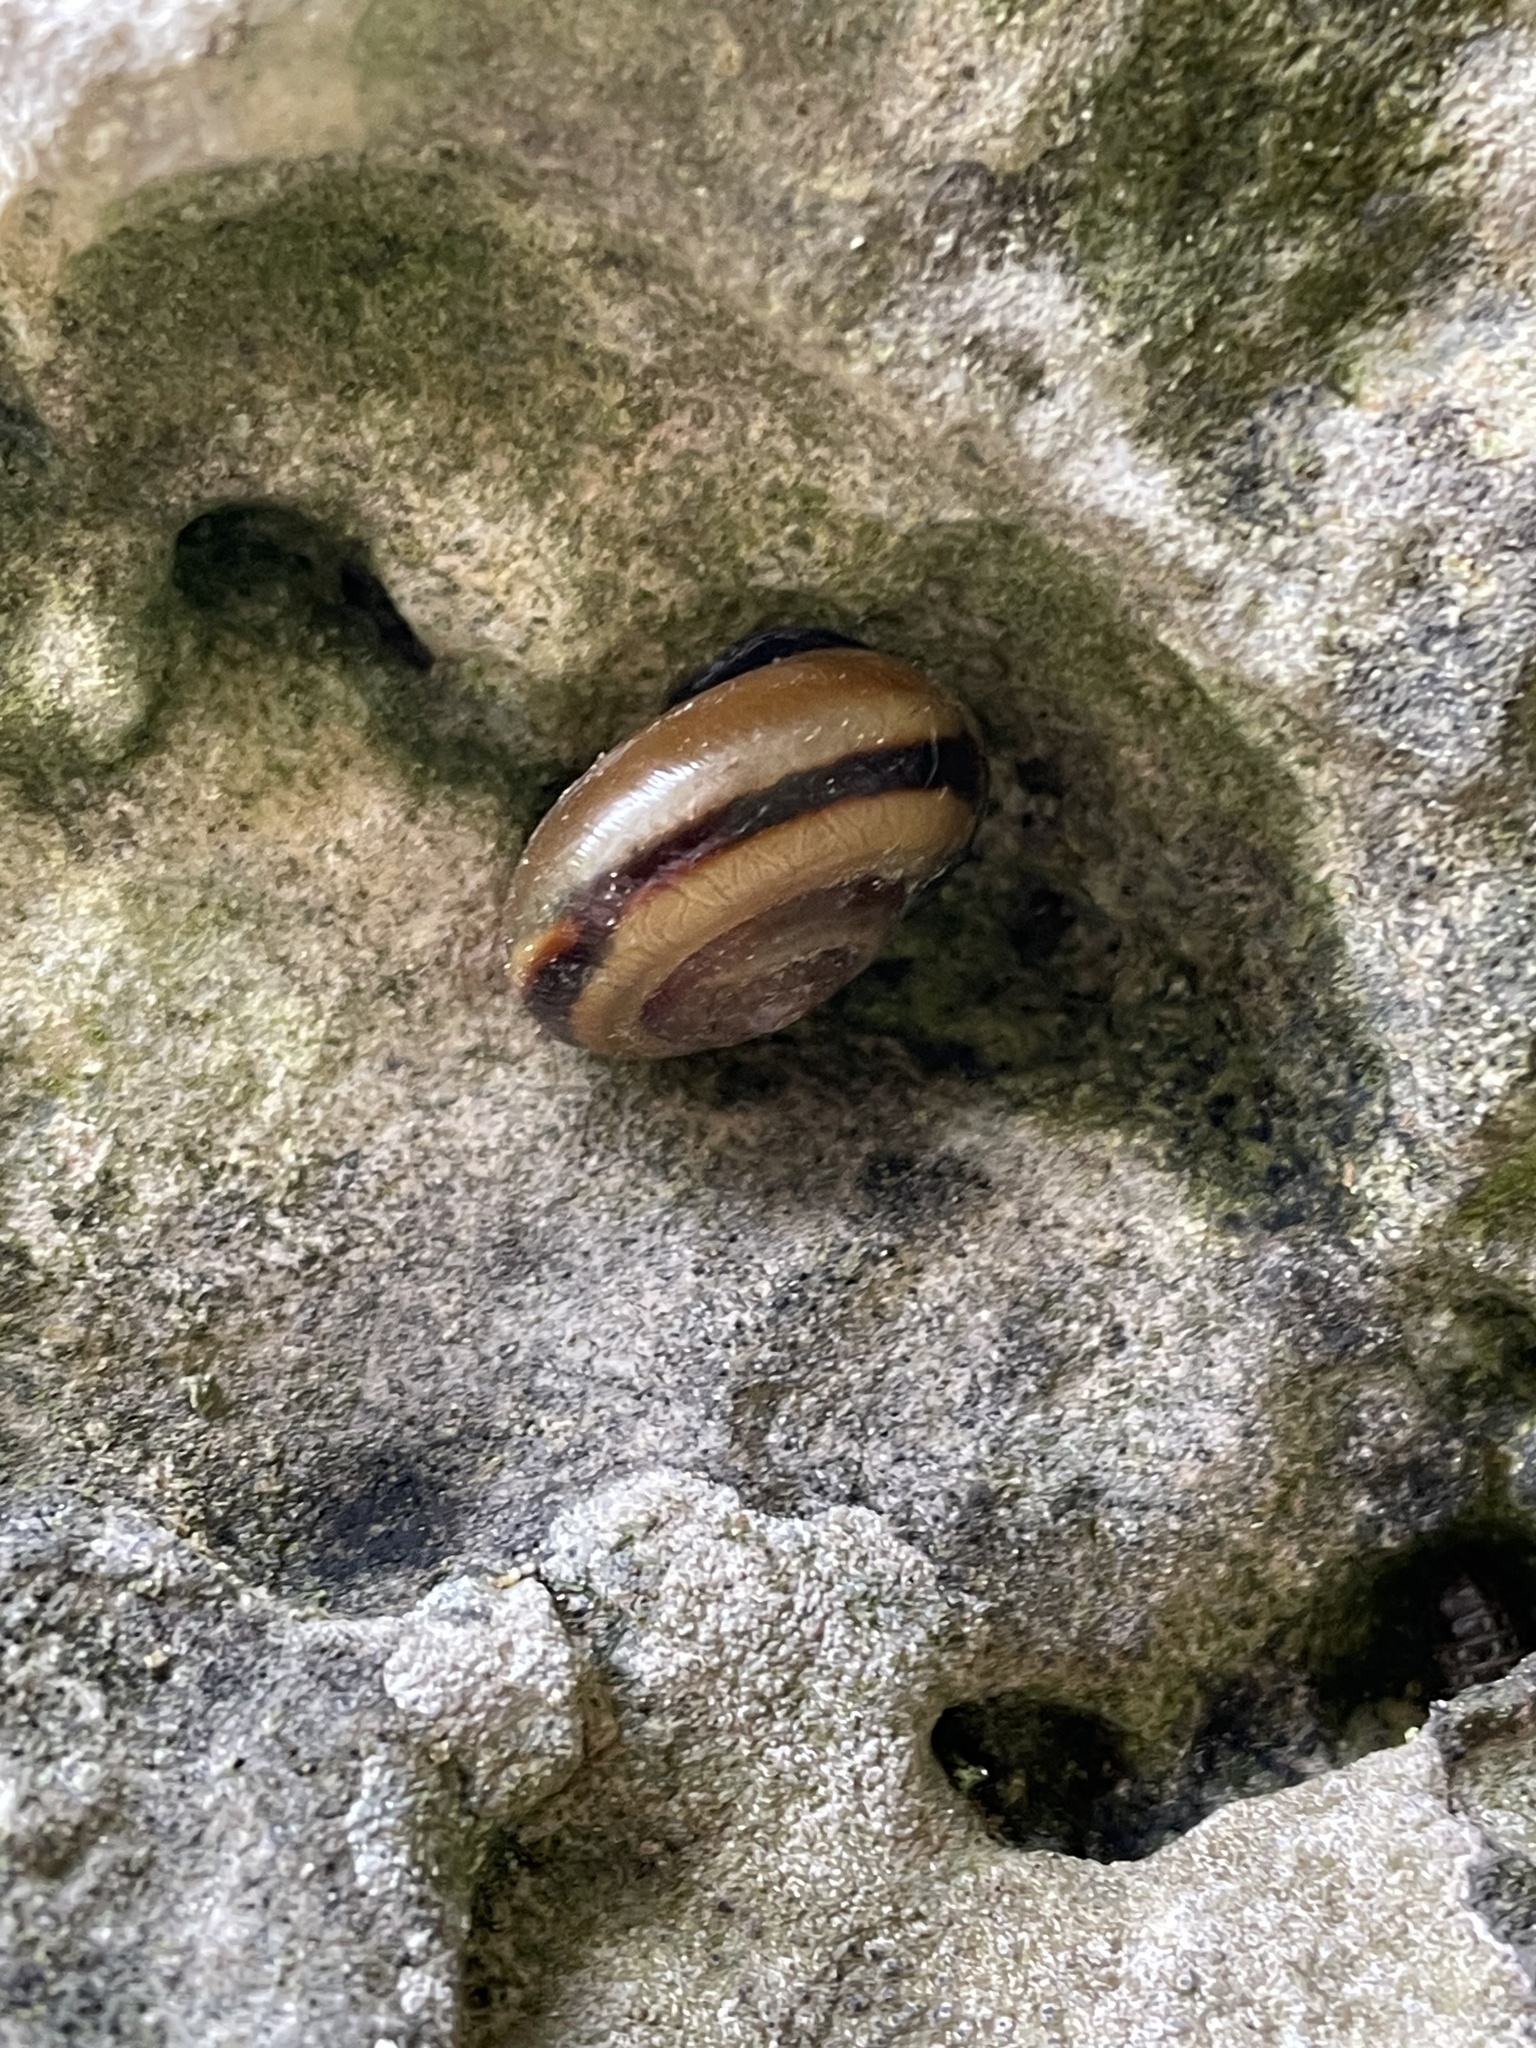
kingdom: Animalia
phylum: Mollusca
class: Gastropoda
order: Stylommatophora
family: Helicidae
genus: Faustina
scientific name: Faustina faustina
